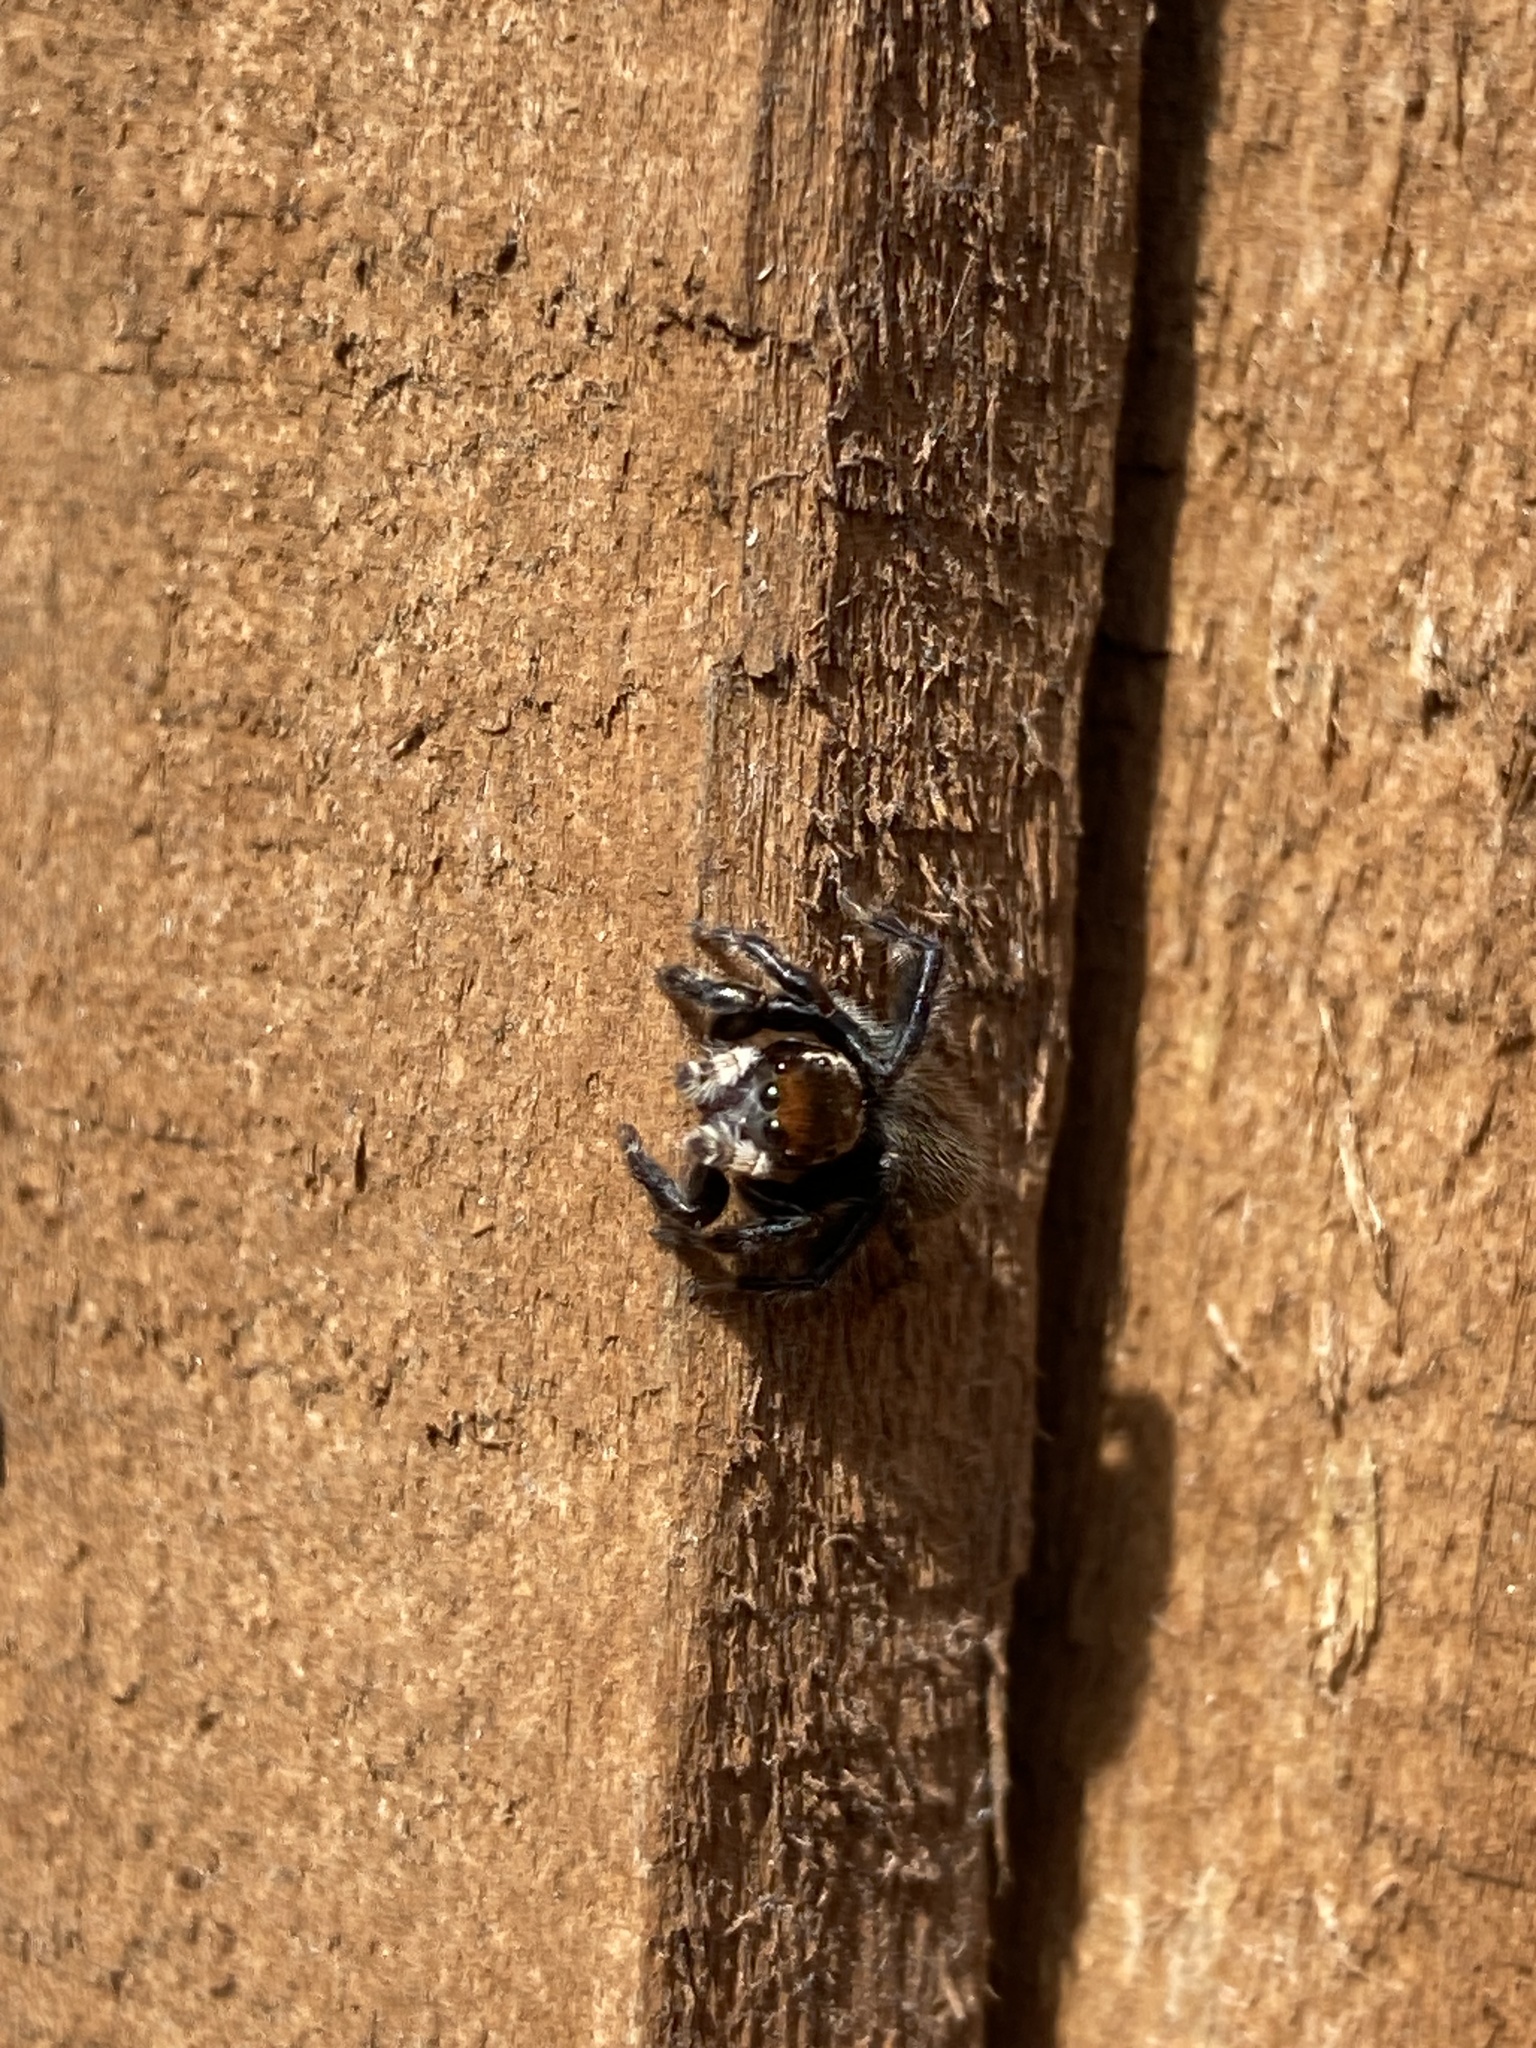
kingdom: Animalia
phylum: Arthropoda
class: Arachnida
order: Araneae
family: Salticidae
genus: Maratus
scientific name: Maratus griseus
